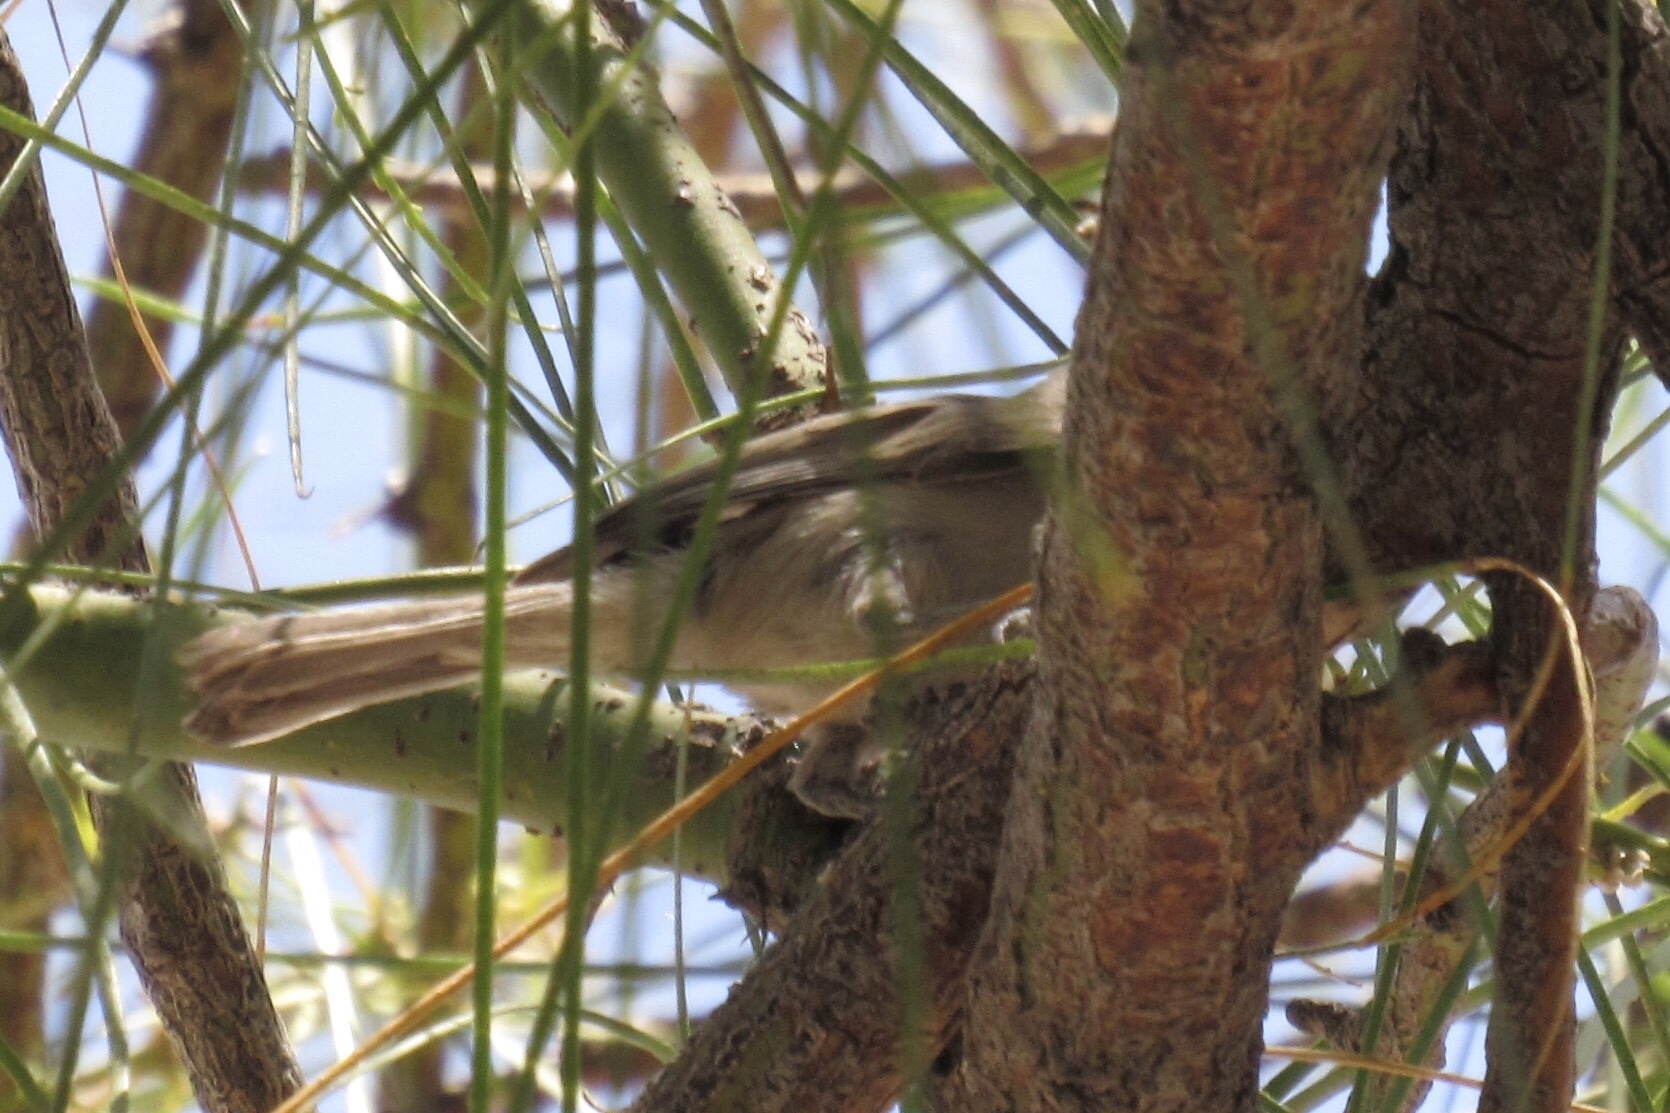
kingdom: Animalia
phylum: Chordata
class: Aves
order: Passeriformes
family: Remizidae
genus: Auriparus
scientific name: Auriparus flaviceps
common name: Verdin
